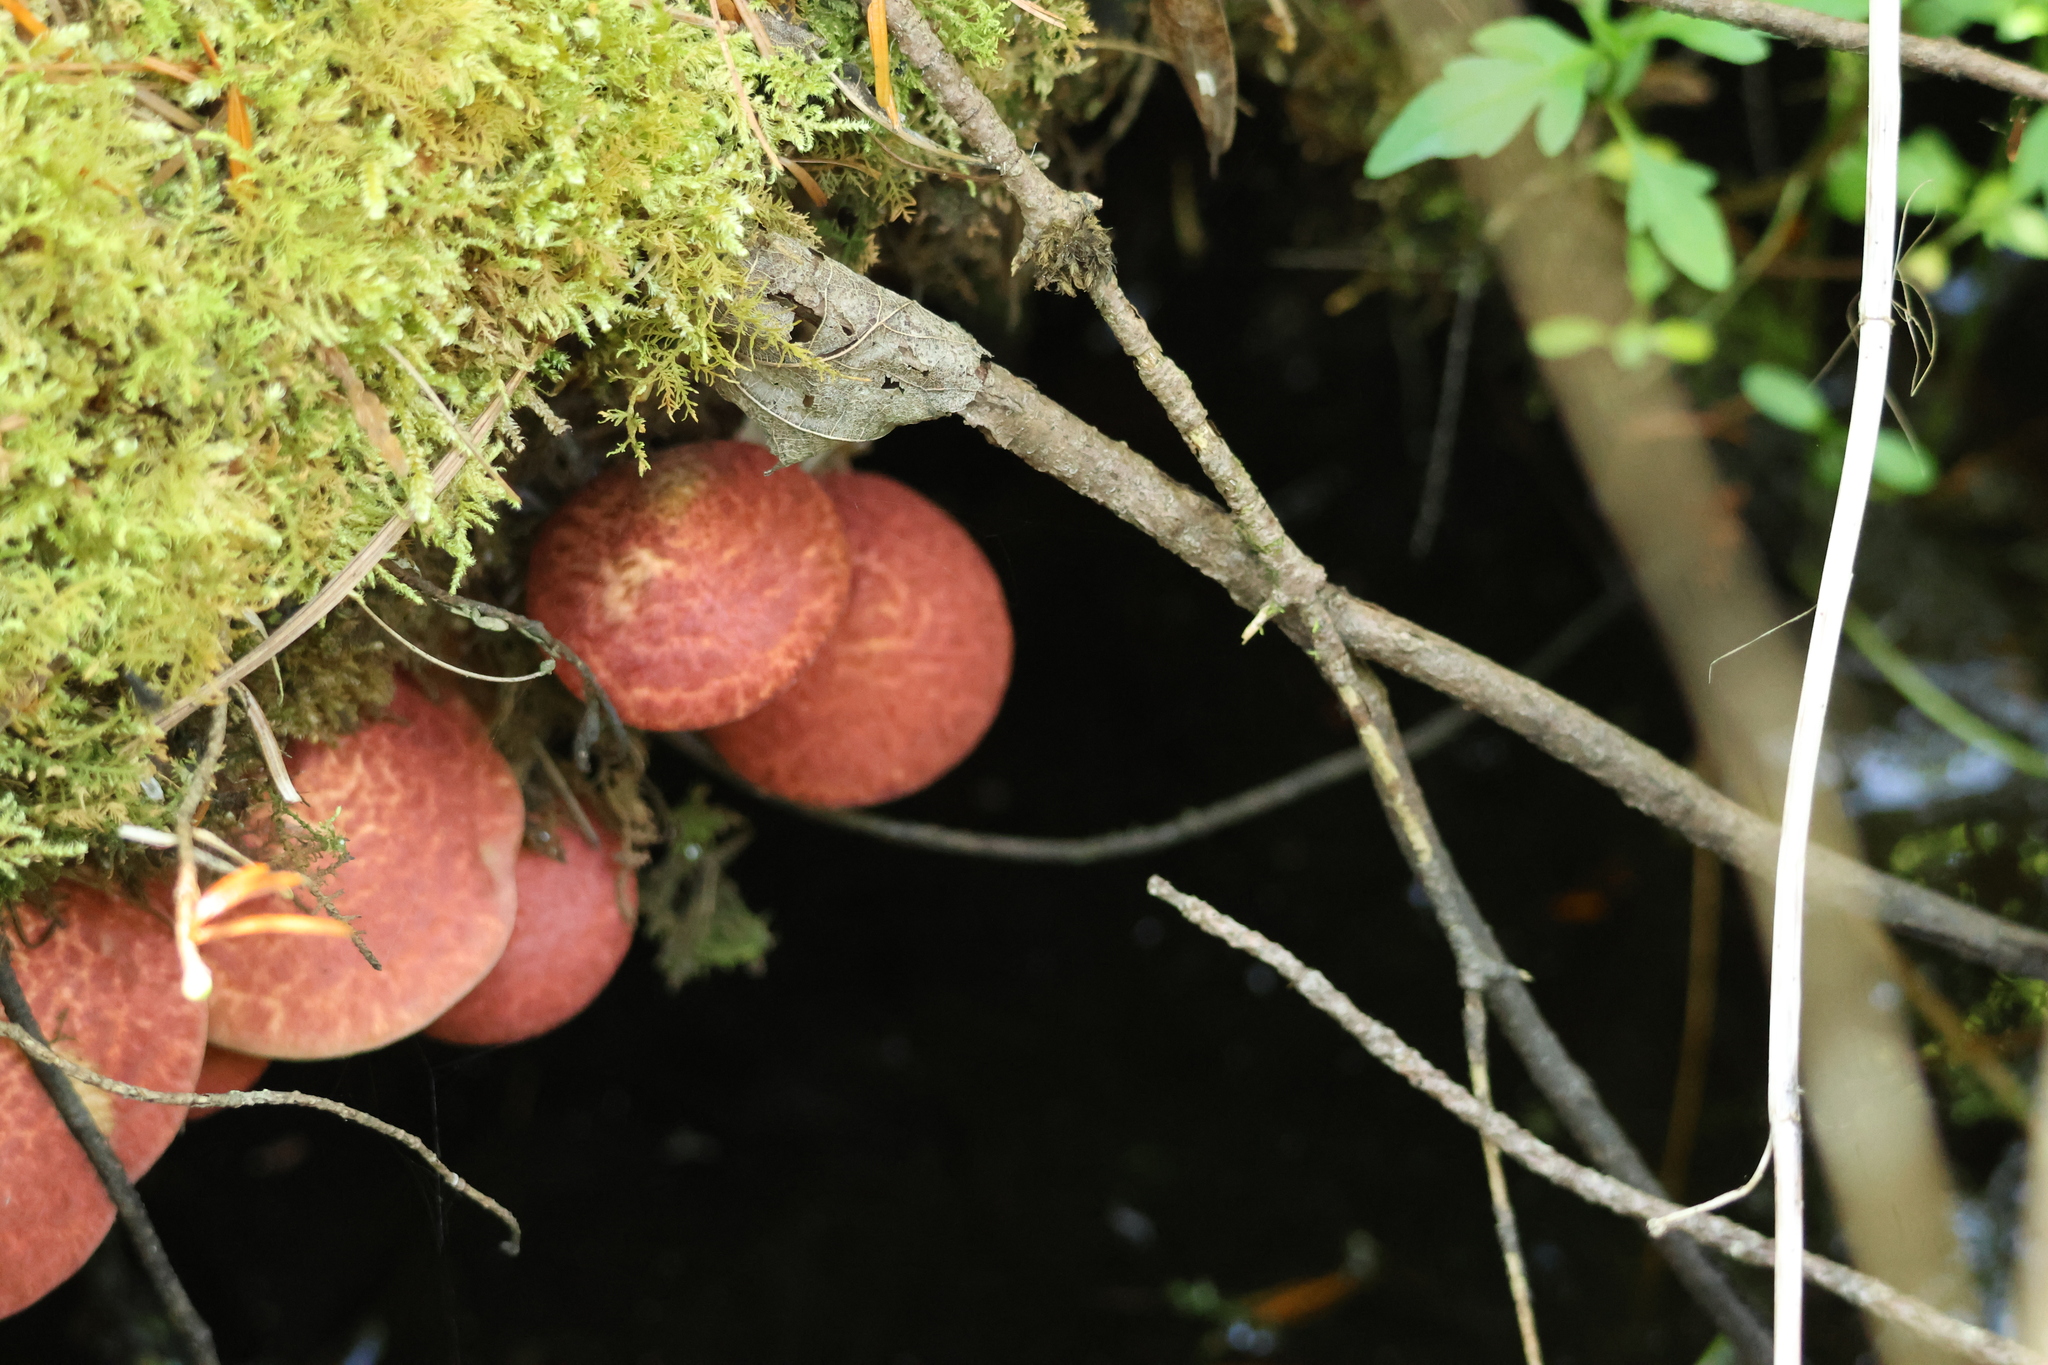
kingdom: Fungi
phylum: Basidiomycota
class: Agaricomycetes
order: Boletales
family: Suillaceae
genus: Suillus
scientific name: Suillus spraguei
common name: Painted suillus
